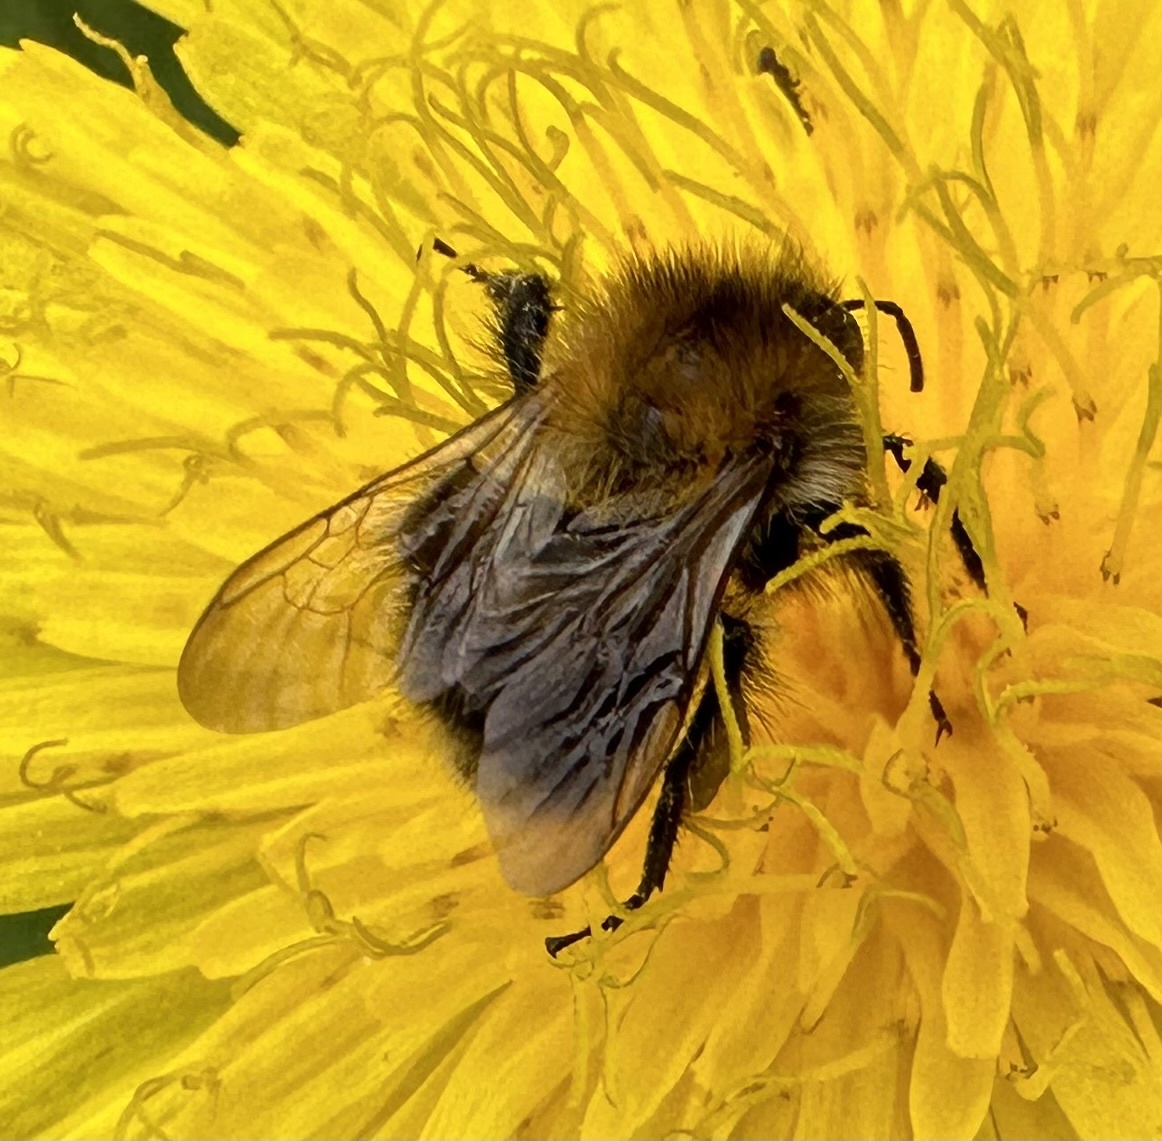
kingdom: Animalia
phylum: Arthropoda
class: Insecta
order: Hymenoptera
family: Apidae
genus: Bombus
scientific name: Bombus pascuorum
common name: Common carder bee
